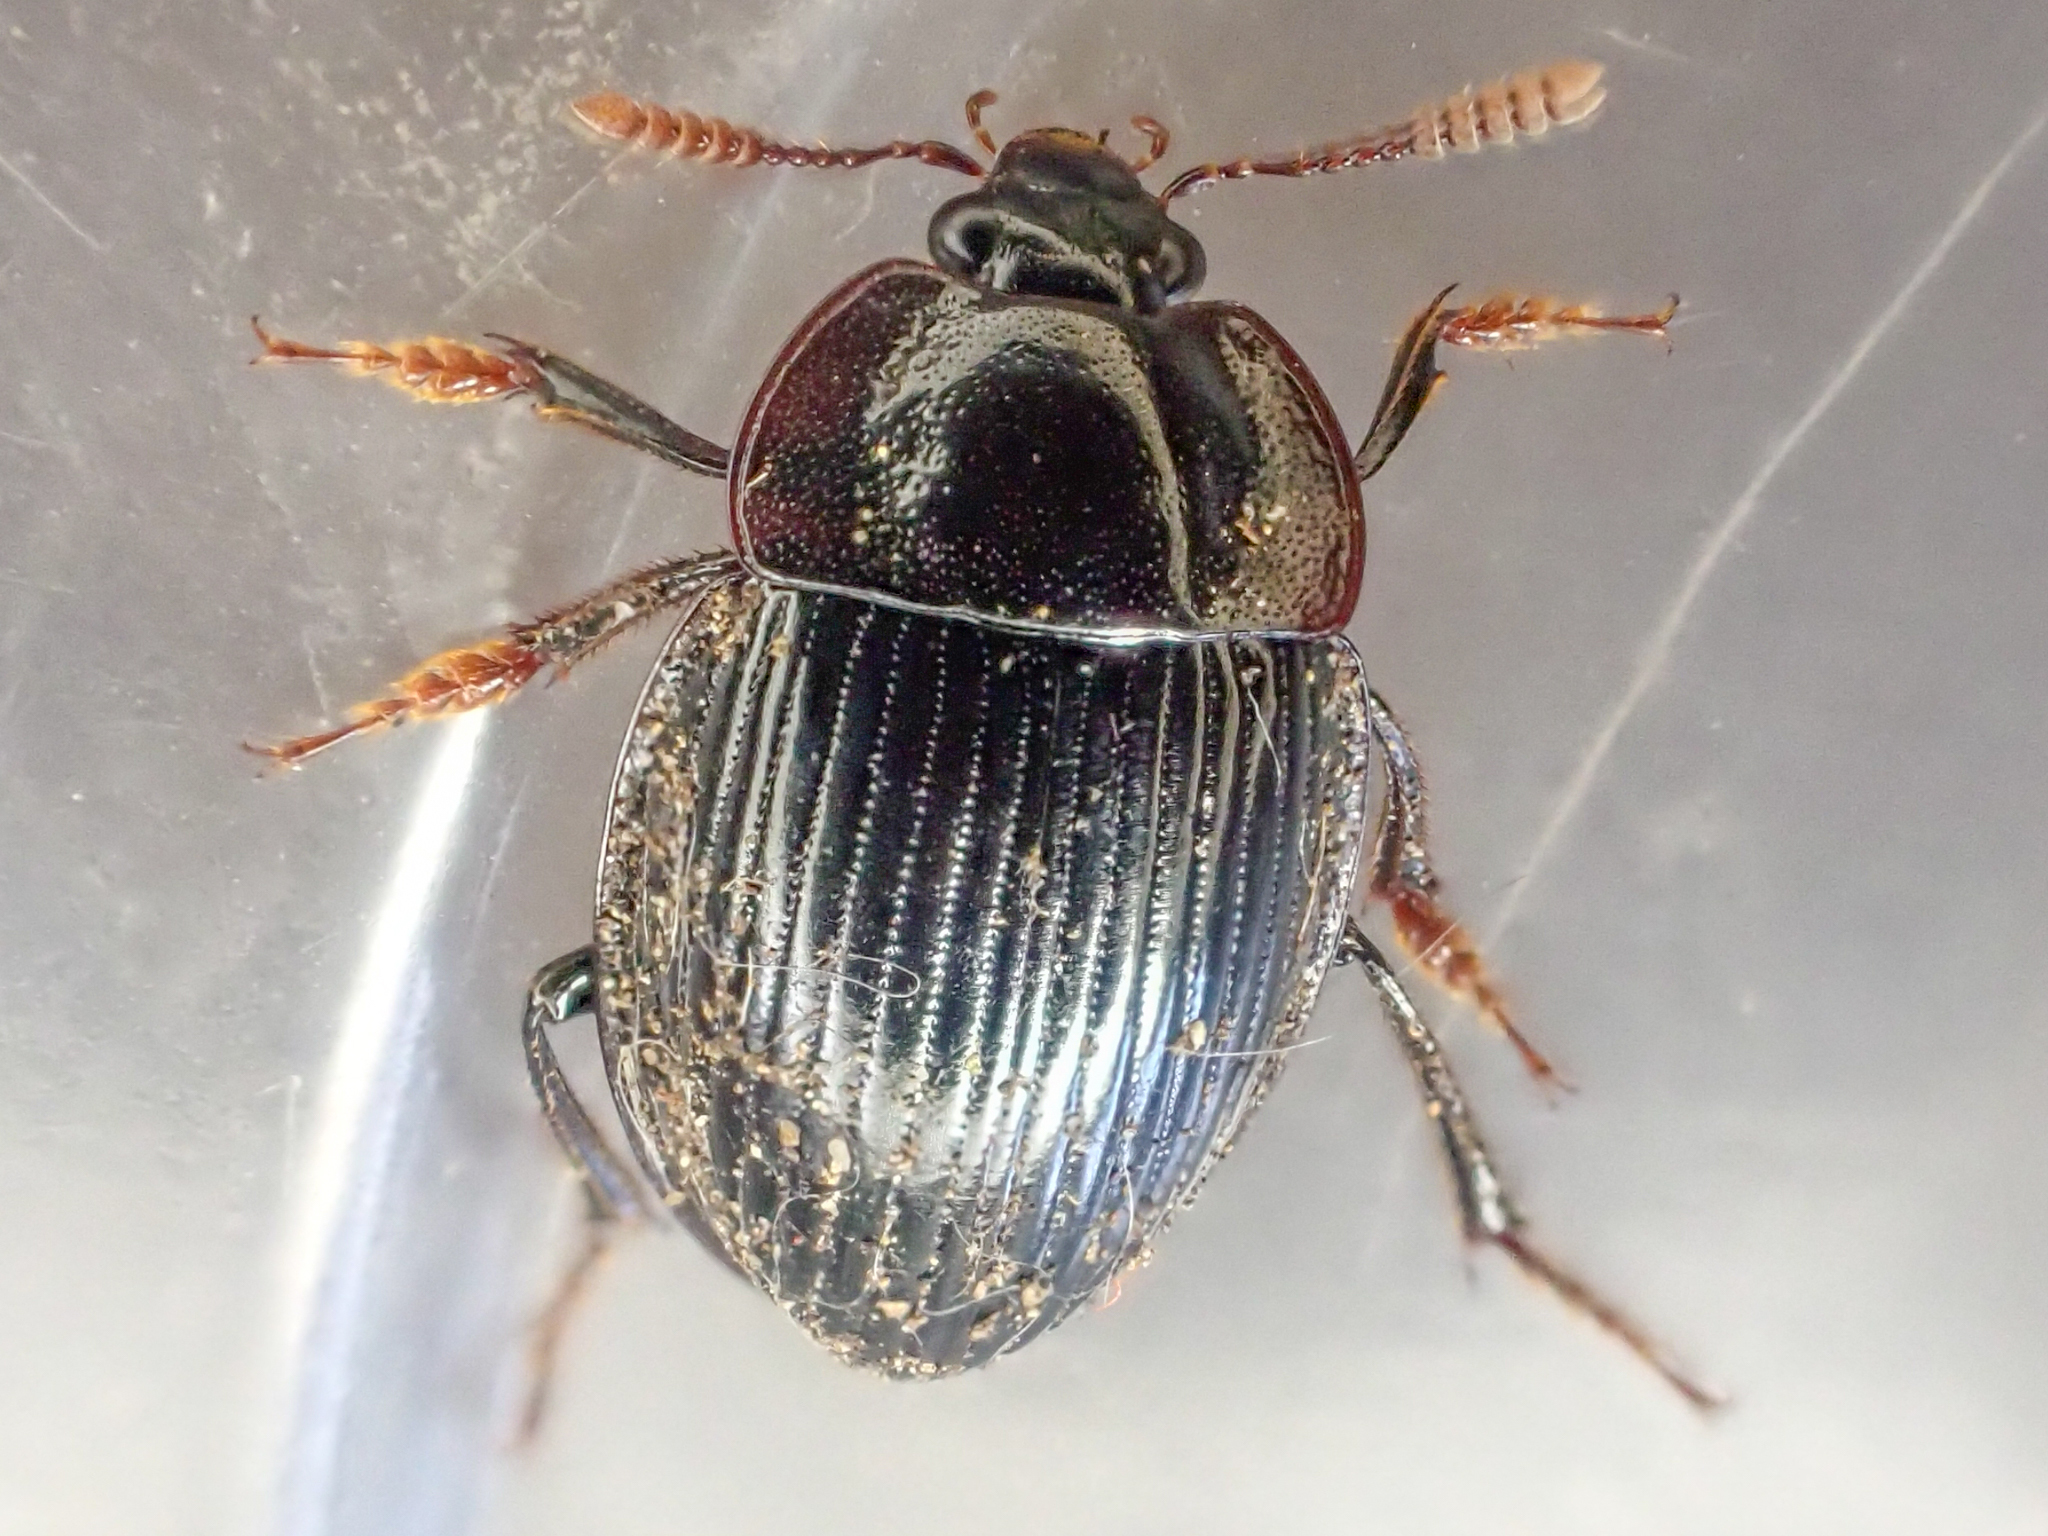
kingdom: Animalia
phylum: Arthropoda
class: Insecta
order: Coleoptera
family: Agyrtidae
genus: Necrophilus
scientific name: Necrophilus hydrophiloides
